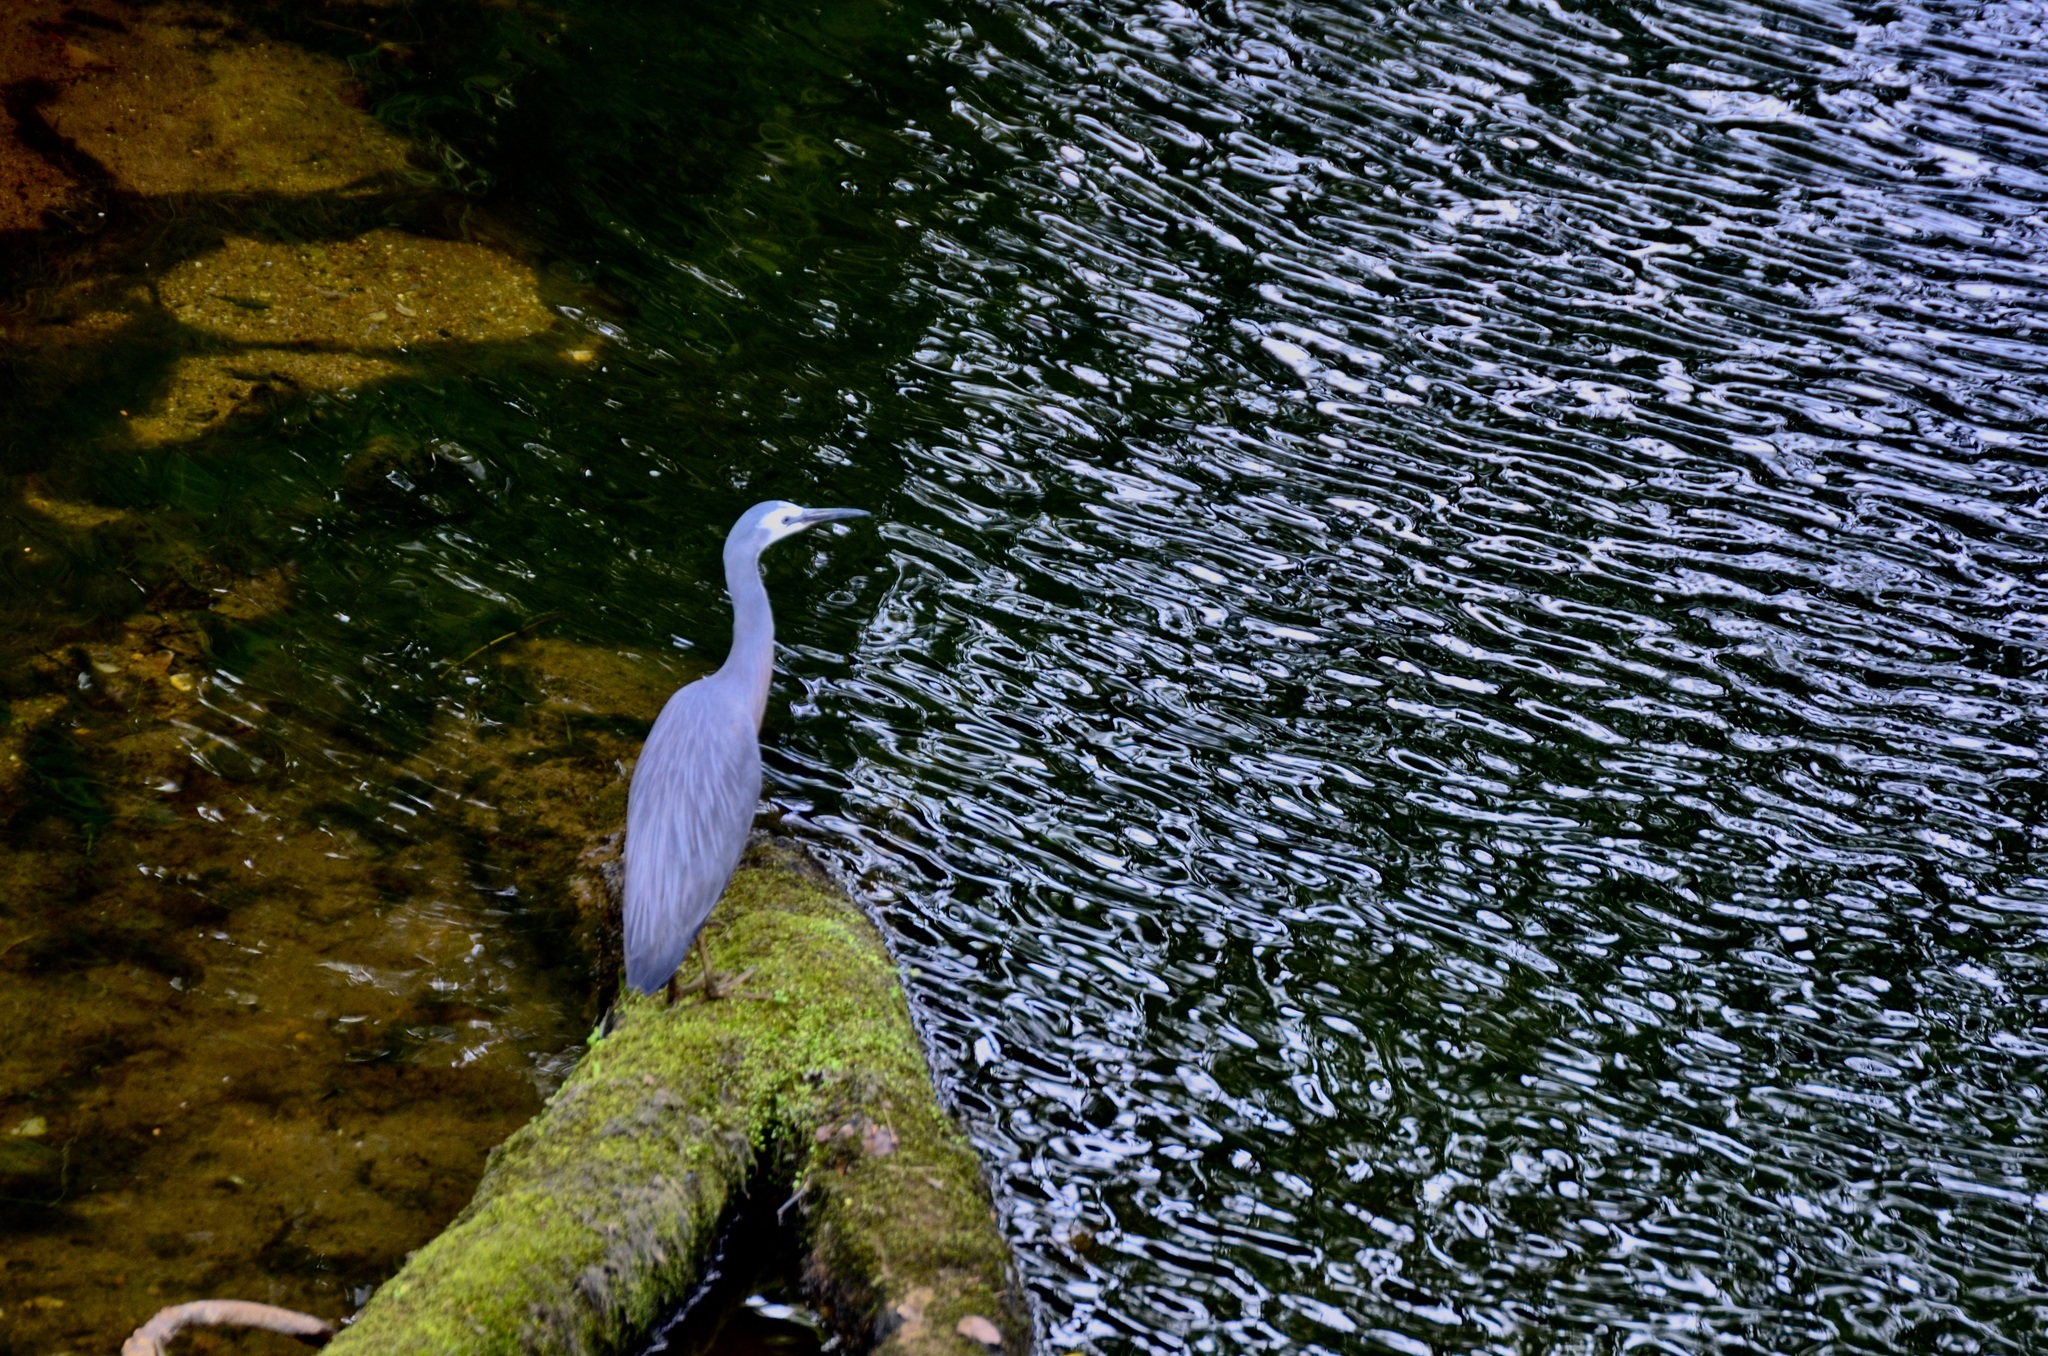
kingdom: Animalia
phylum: Chordata
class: Aves
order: Pelecaniformes
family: Ardeidae
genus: Egretta
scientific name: Egretta novaehollandiae
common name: White-faced heron
